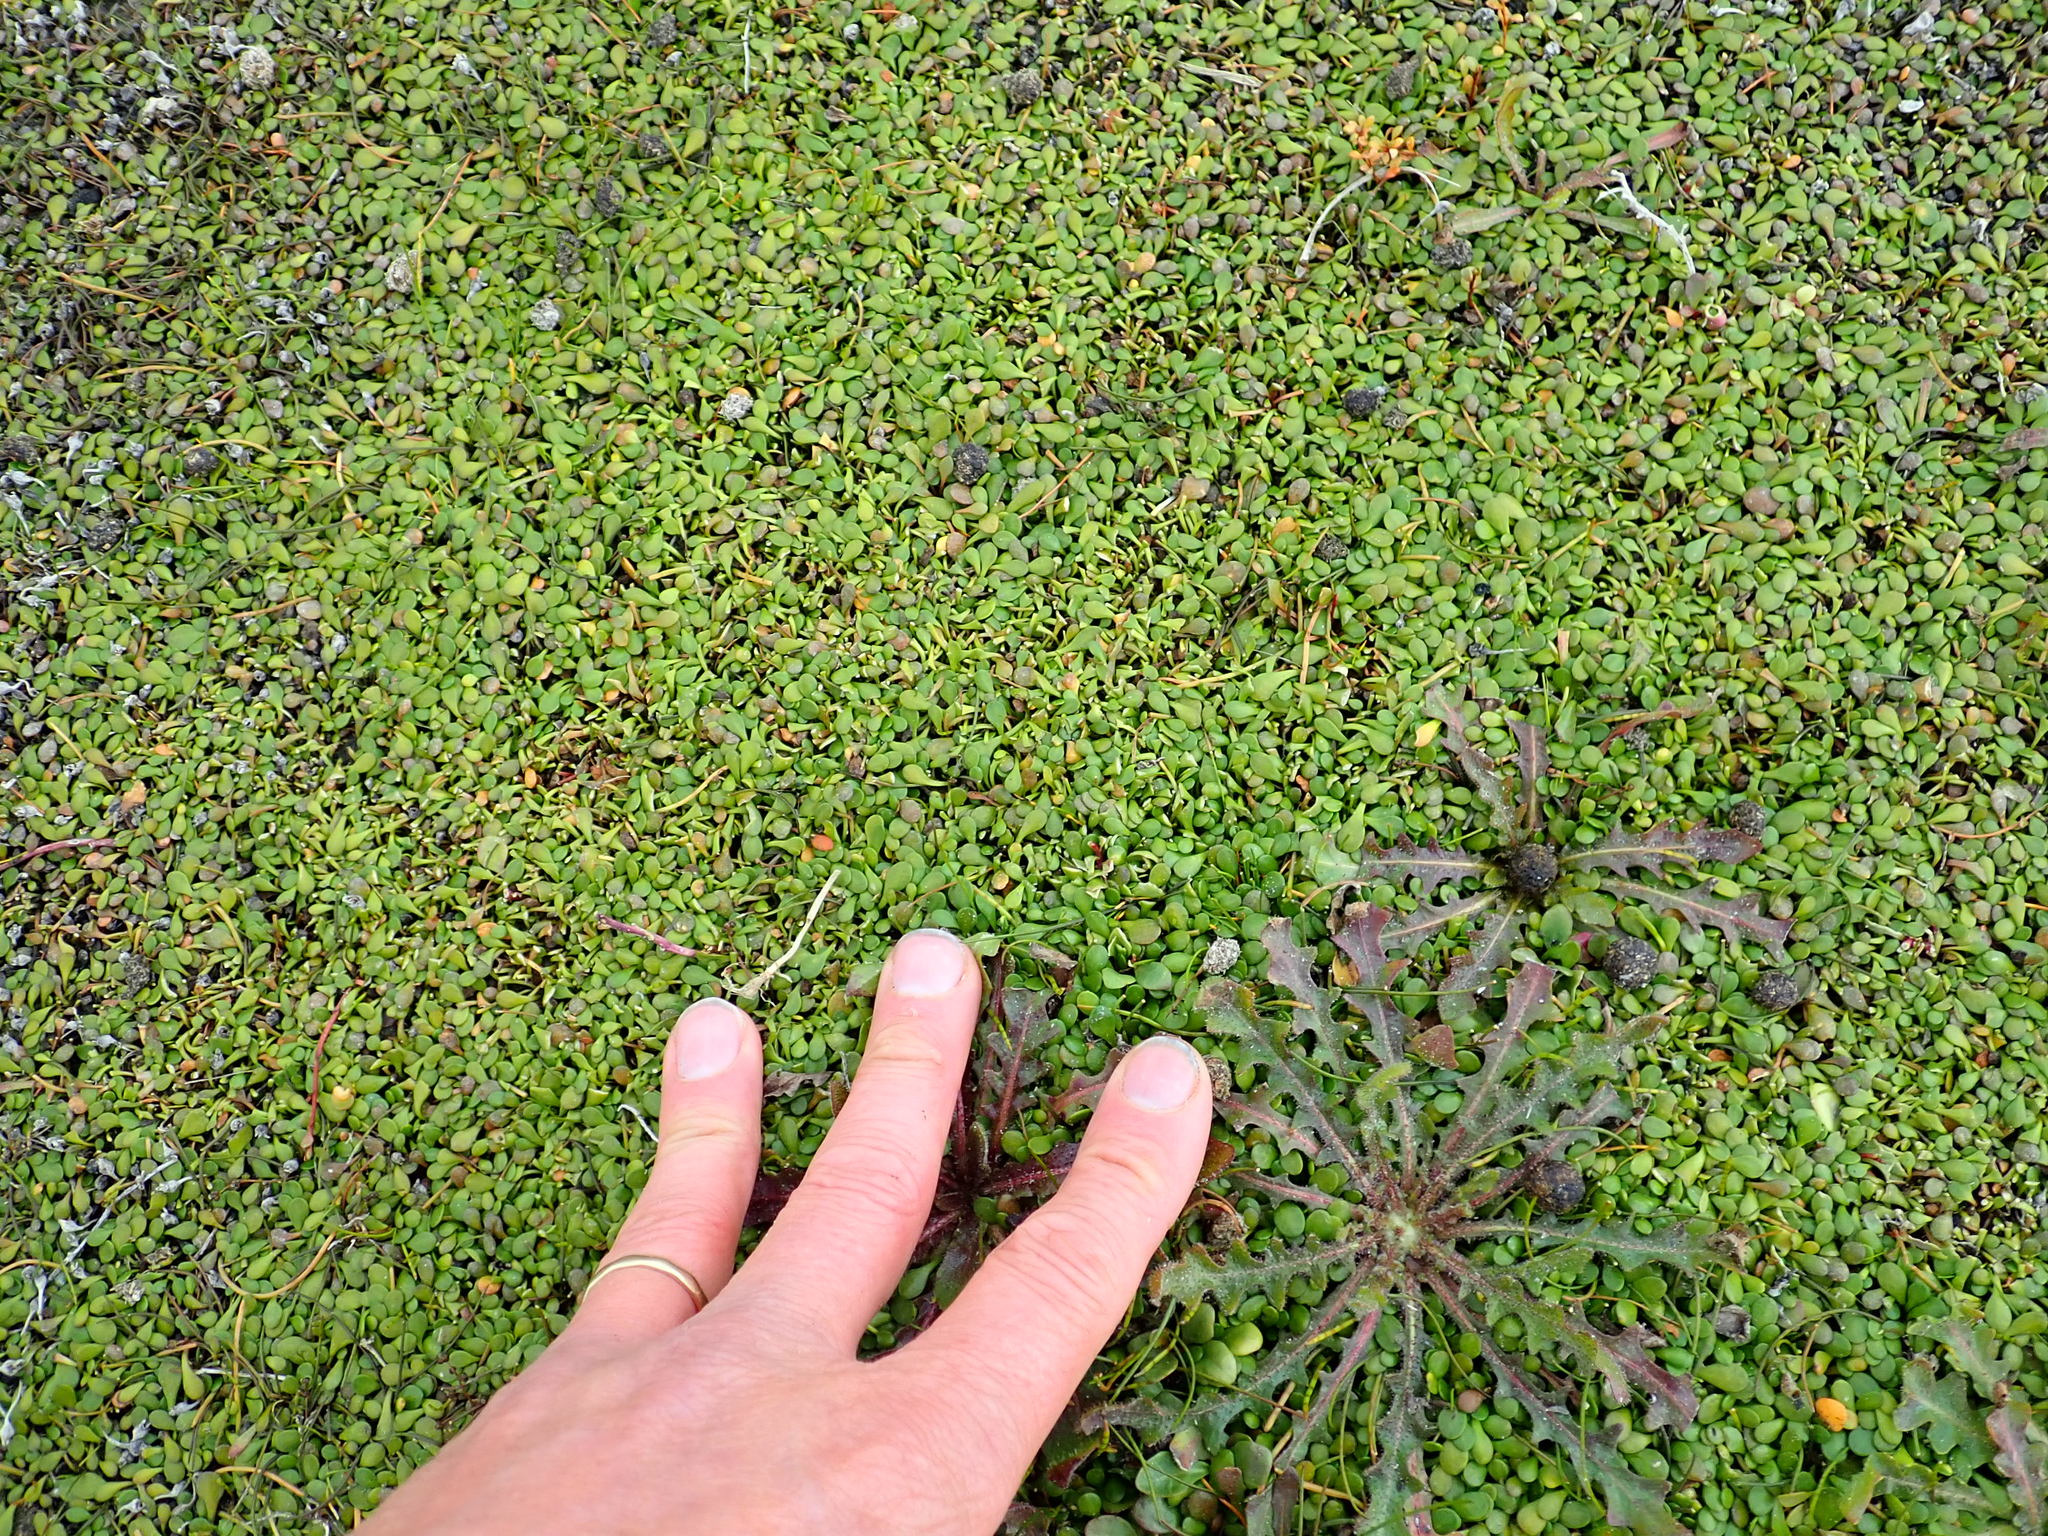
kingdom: Plantae
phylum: Tracheophyta
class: Magnoliopsida
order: Asterales
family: Goodeniaceae
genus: Goodenia
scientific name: Goodenia radicans
